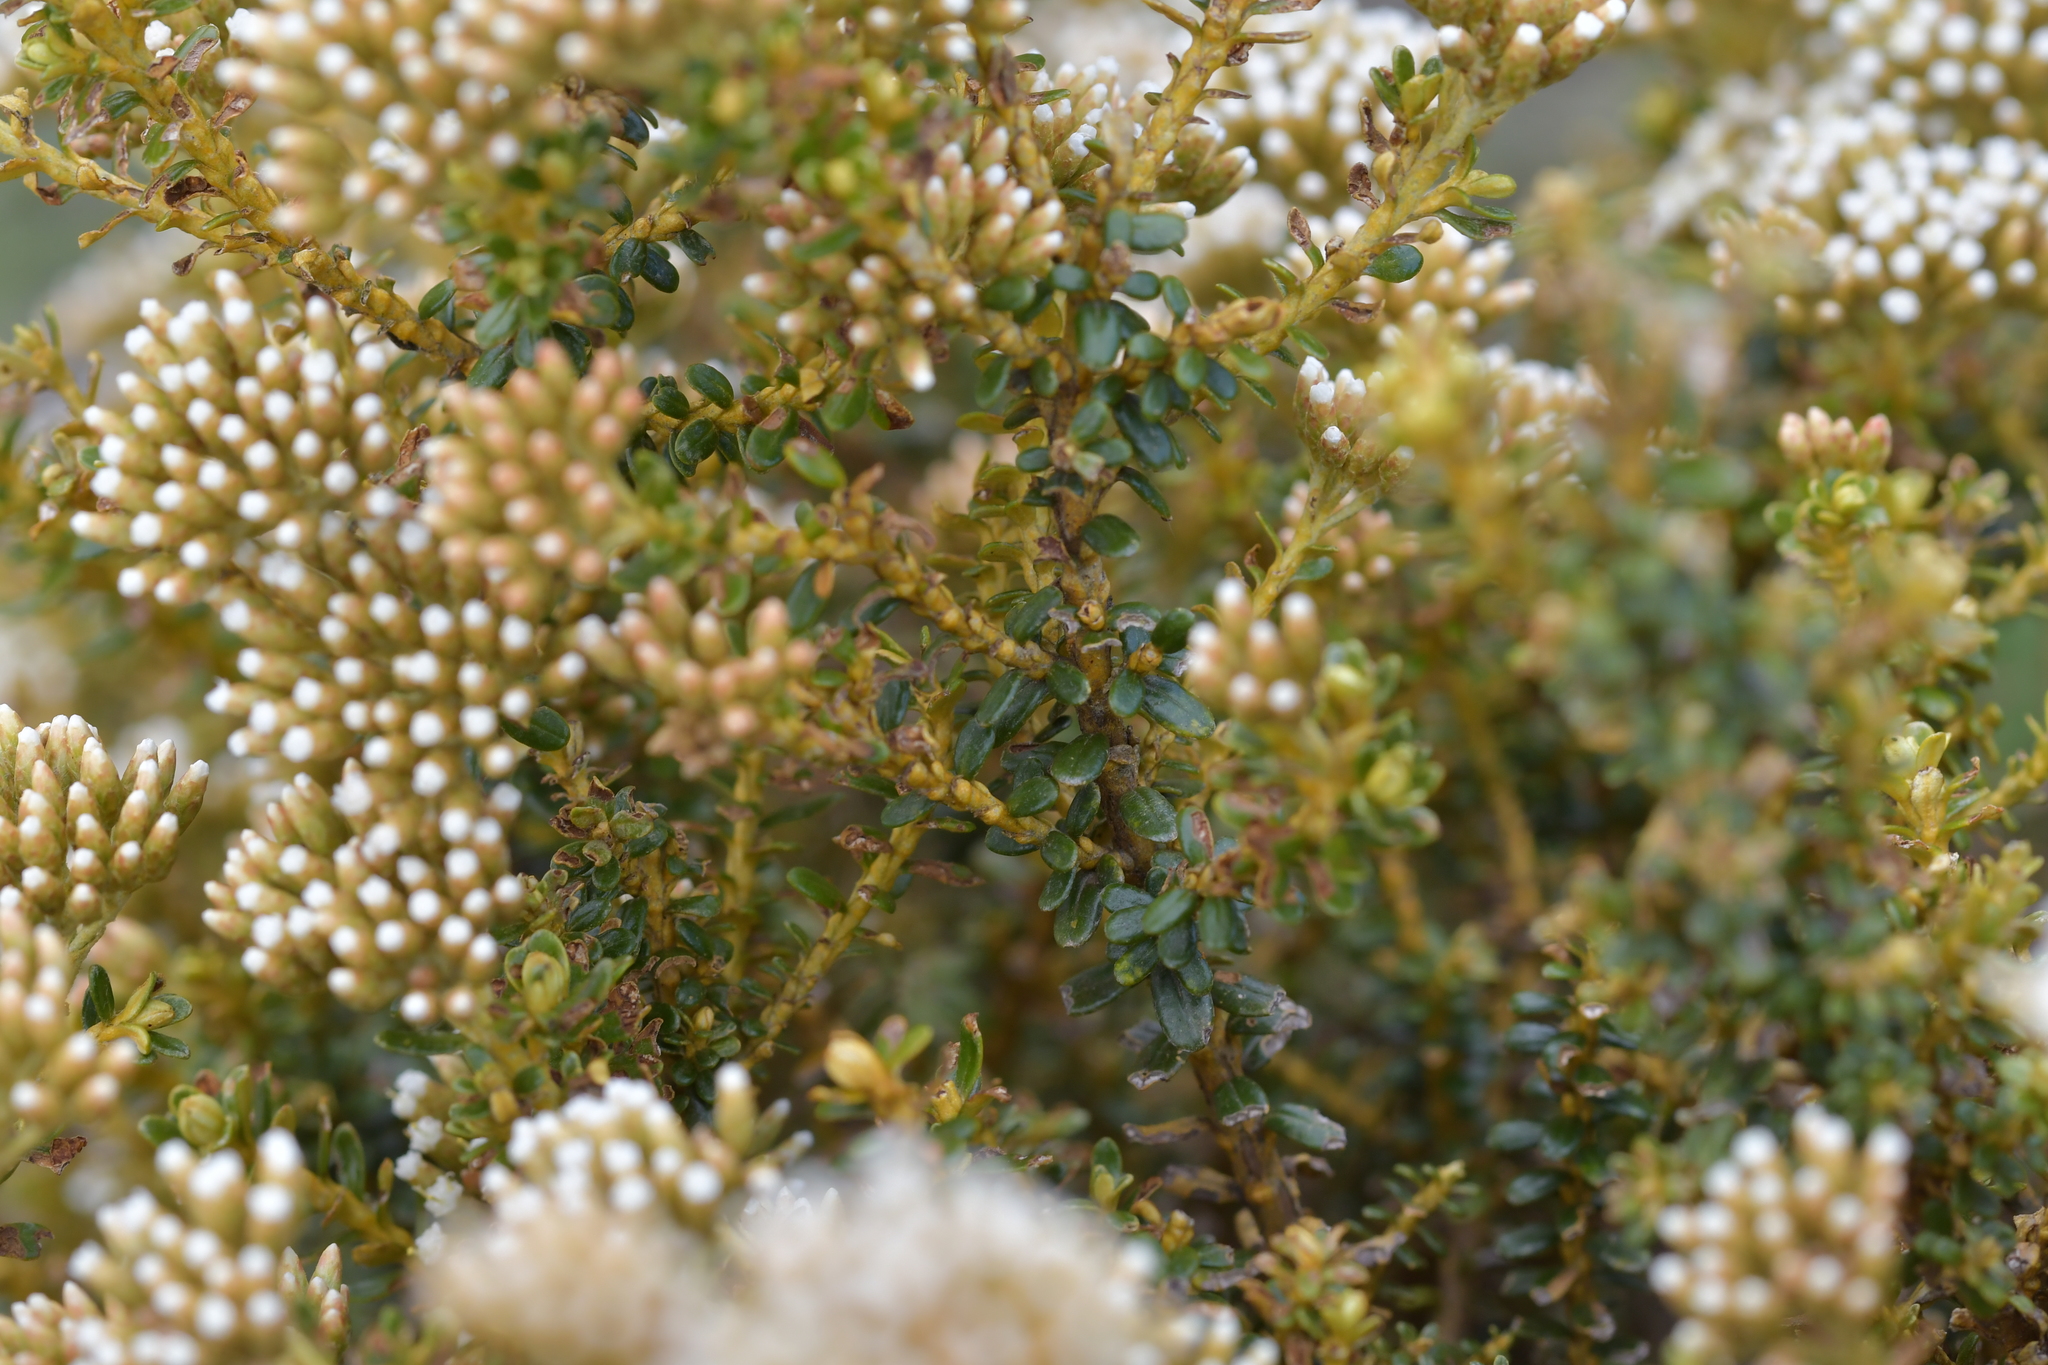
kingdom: Plantae
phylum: Tracheophyta
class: Magnoliopsida
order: Asterales
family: Asteraceae
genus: Ozothamnus
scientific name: Ozothamnus leptophyllus
